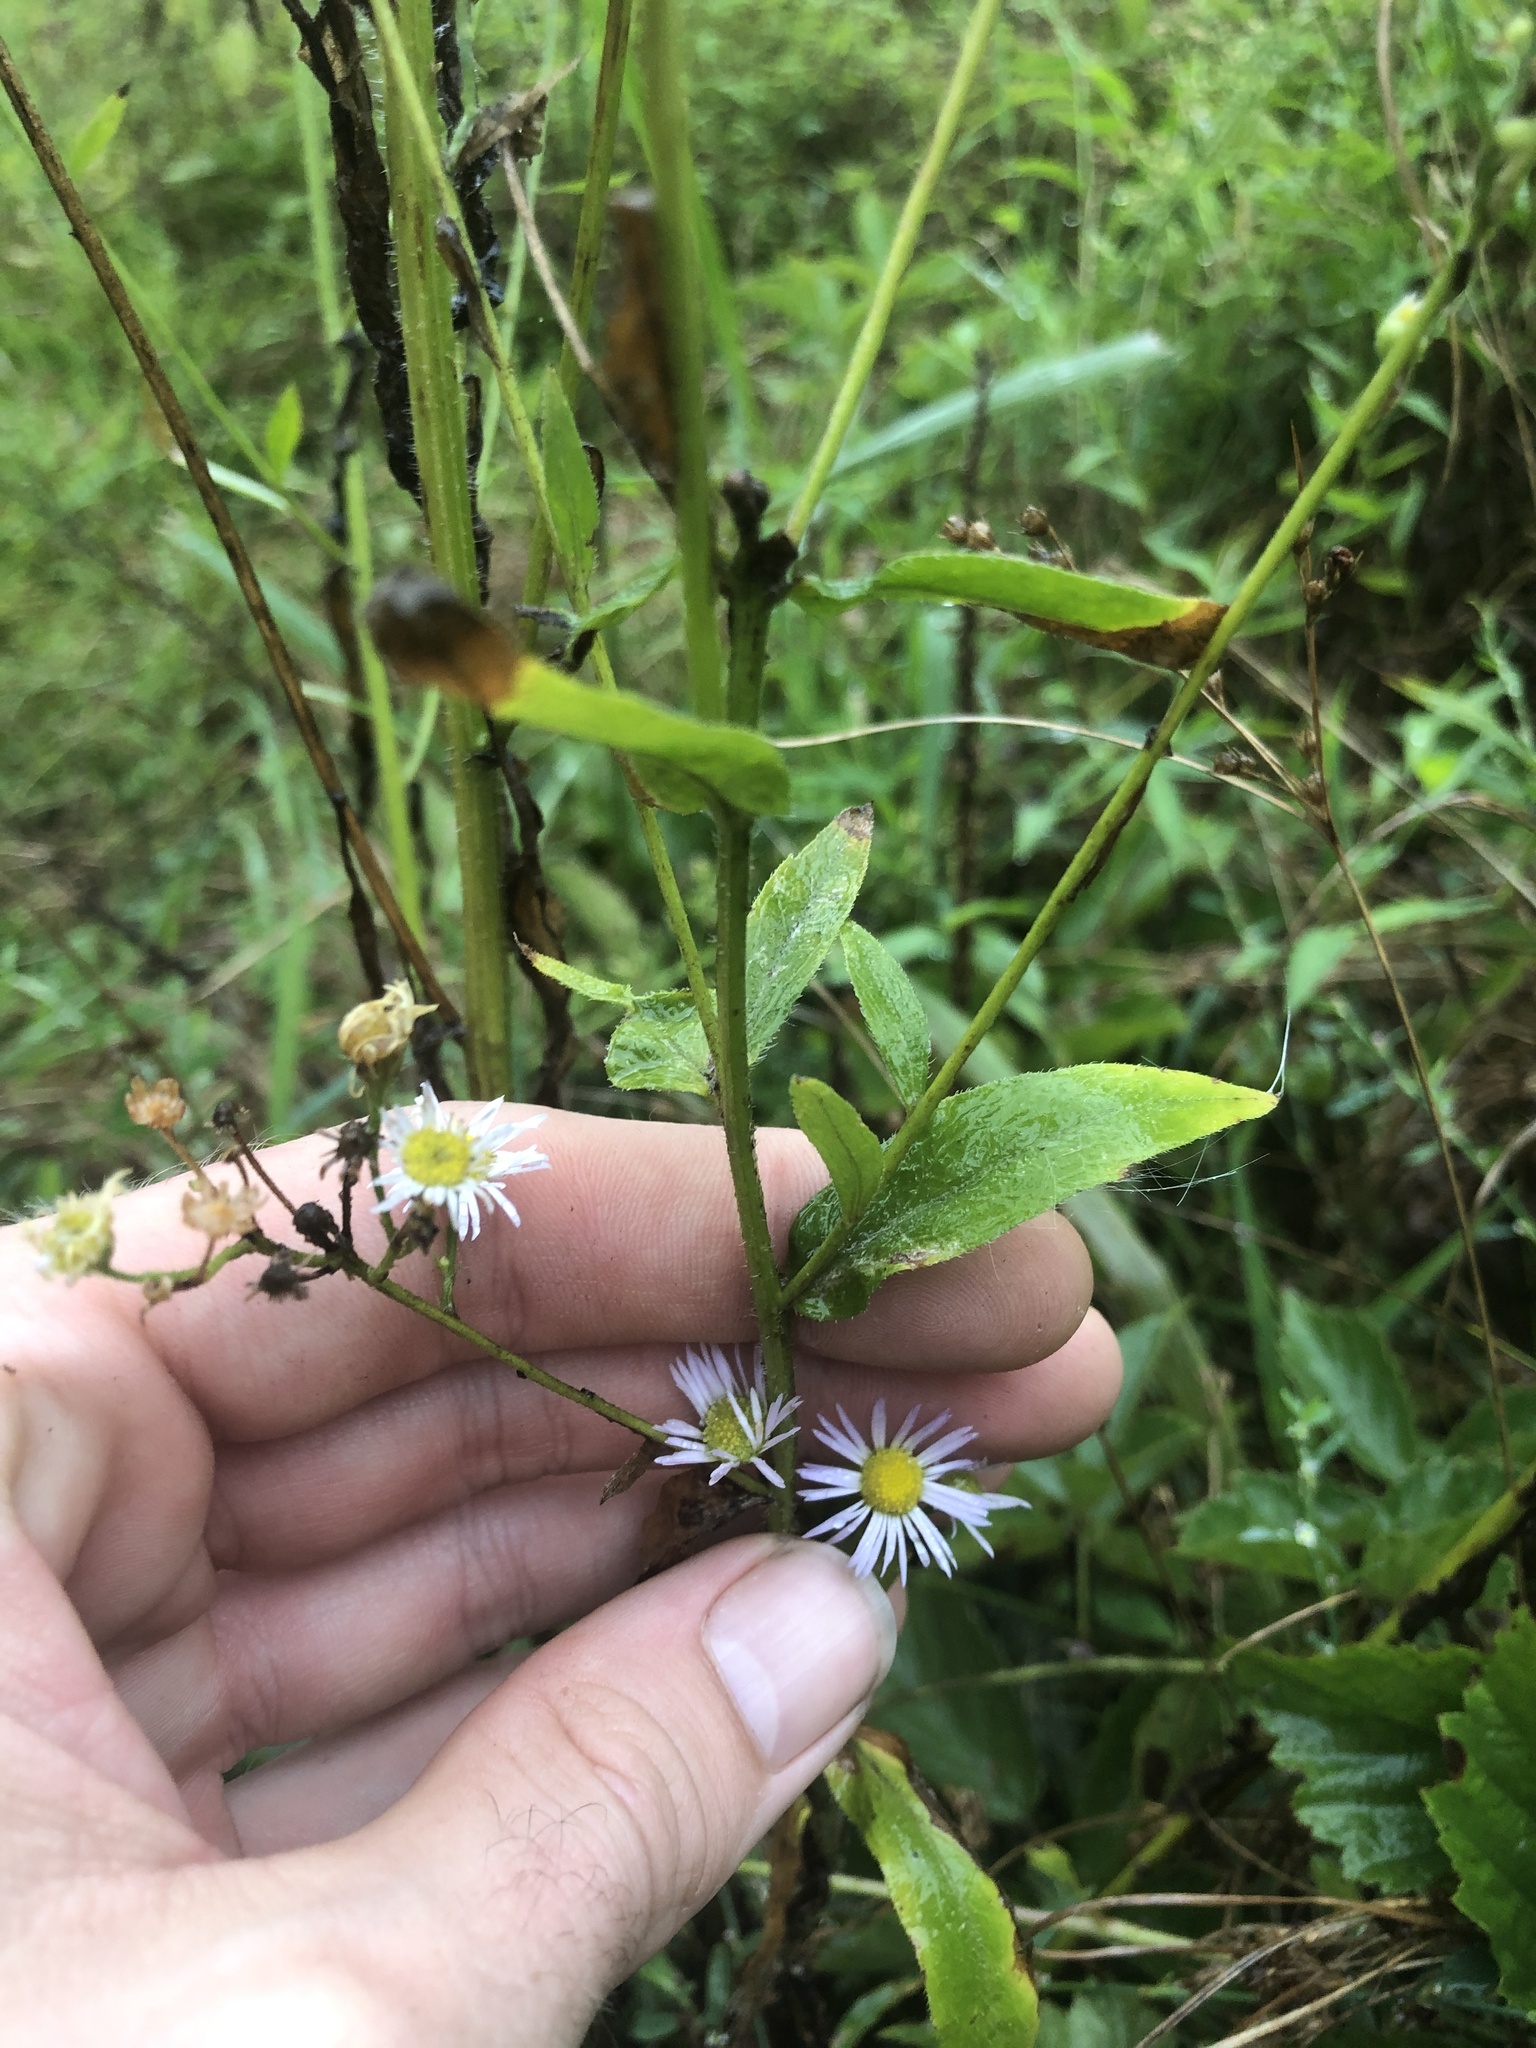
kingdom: Plantae
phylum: Tracheophyta
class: Magnoliopsida
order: Asterales
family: Asteraceae
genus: Erigeron
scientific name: Erigeron strigosus
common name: Common eastern fleabane
